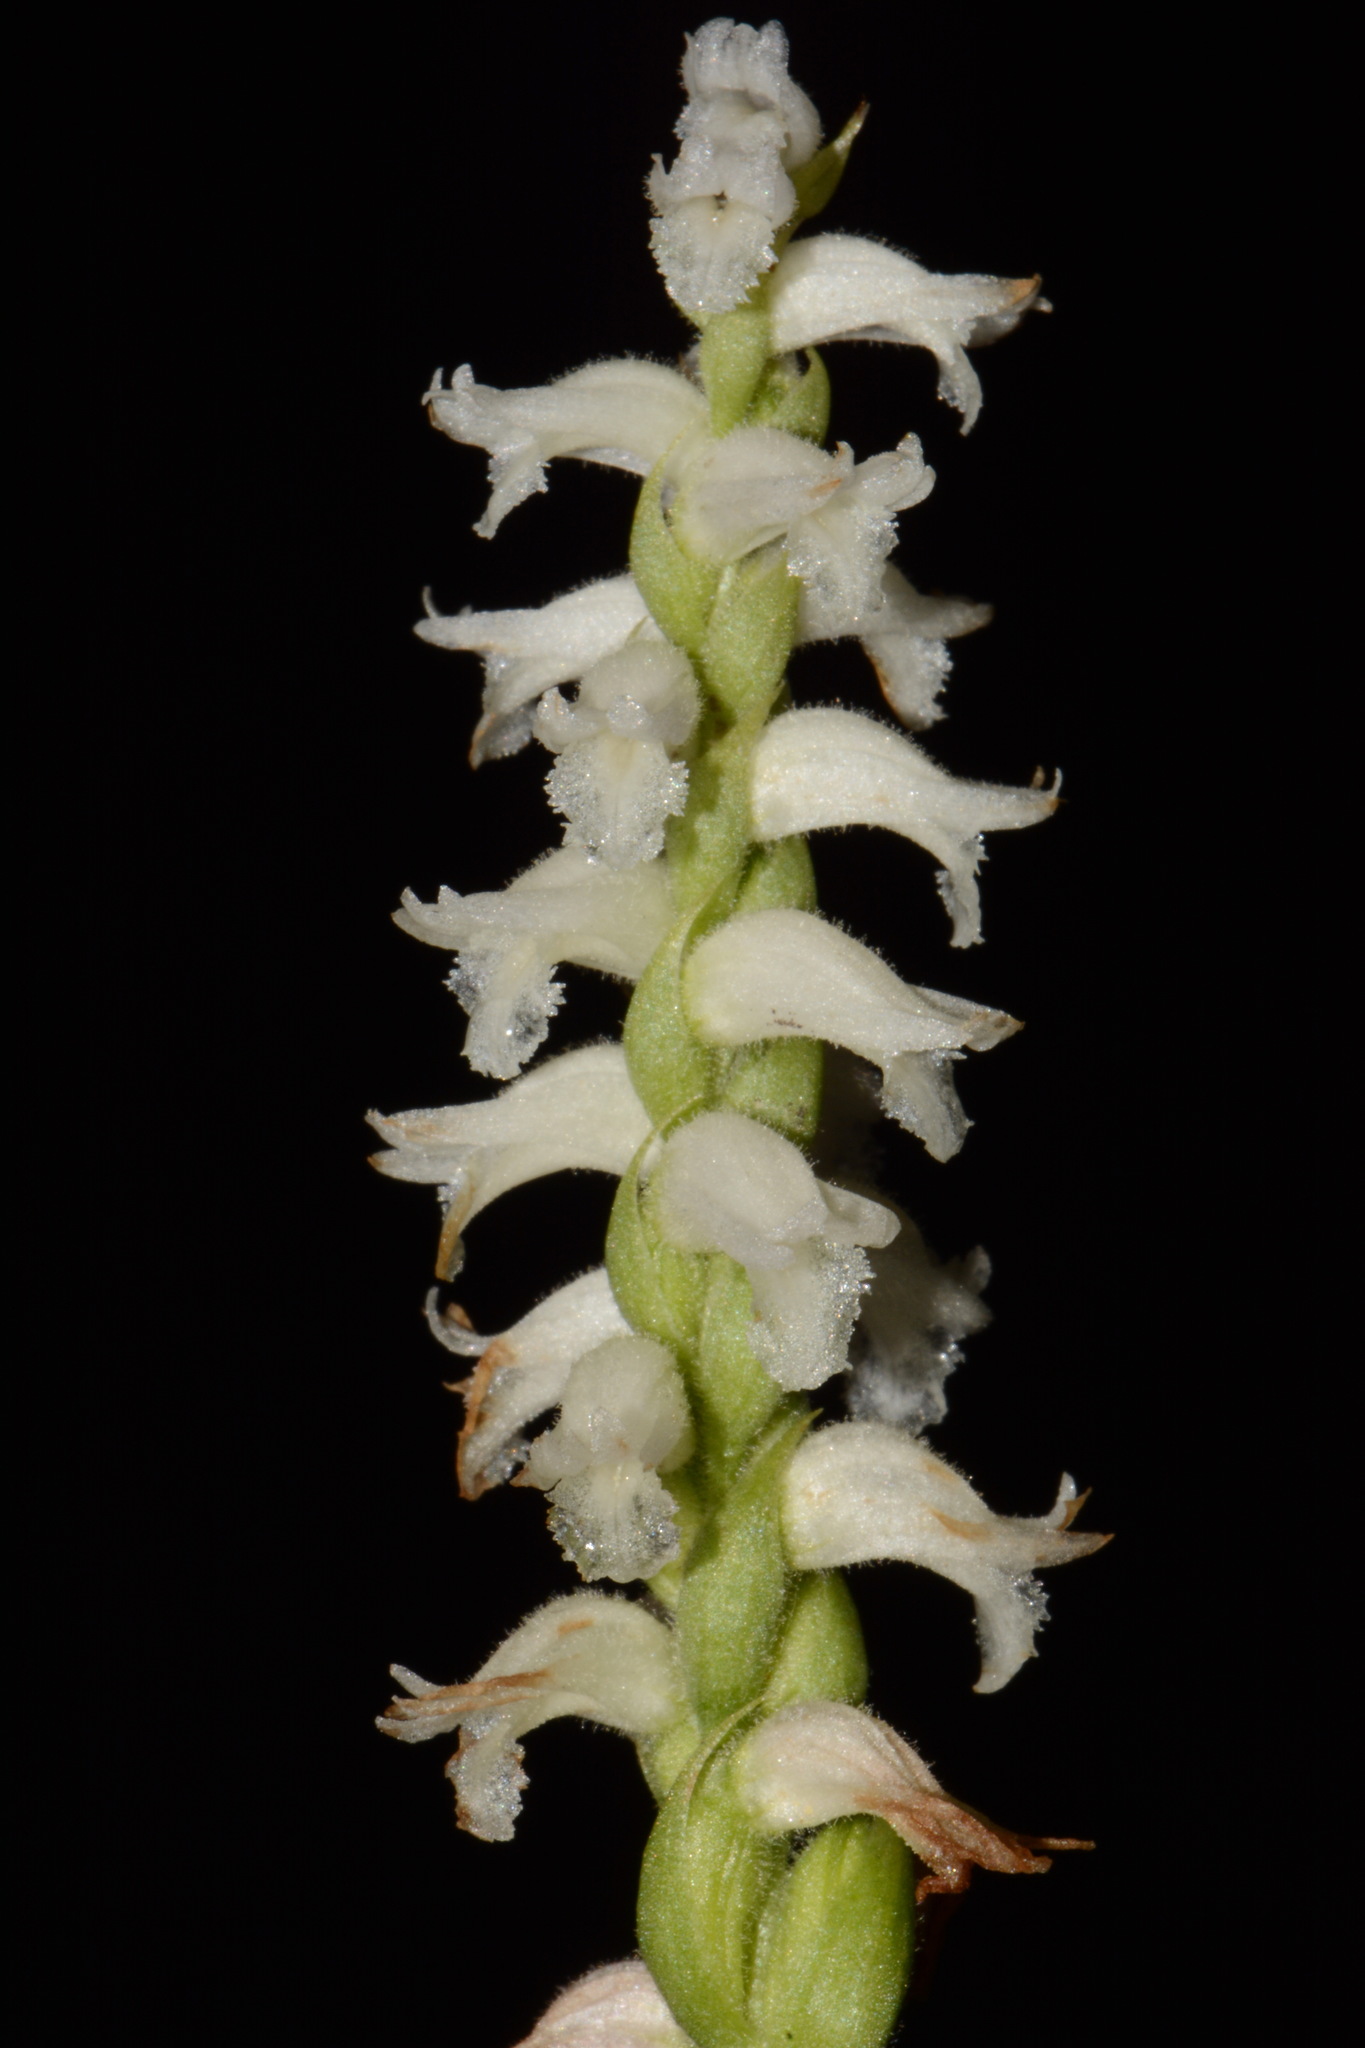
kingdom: Plantae
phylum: Tracheophyta
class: Liliopsida
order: Asparagales
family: Orchidaceae
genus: Spiranthes
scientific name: Spiranthes cernua
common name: Dropping ladies'-tresses
